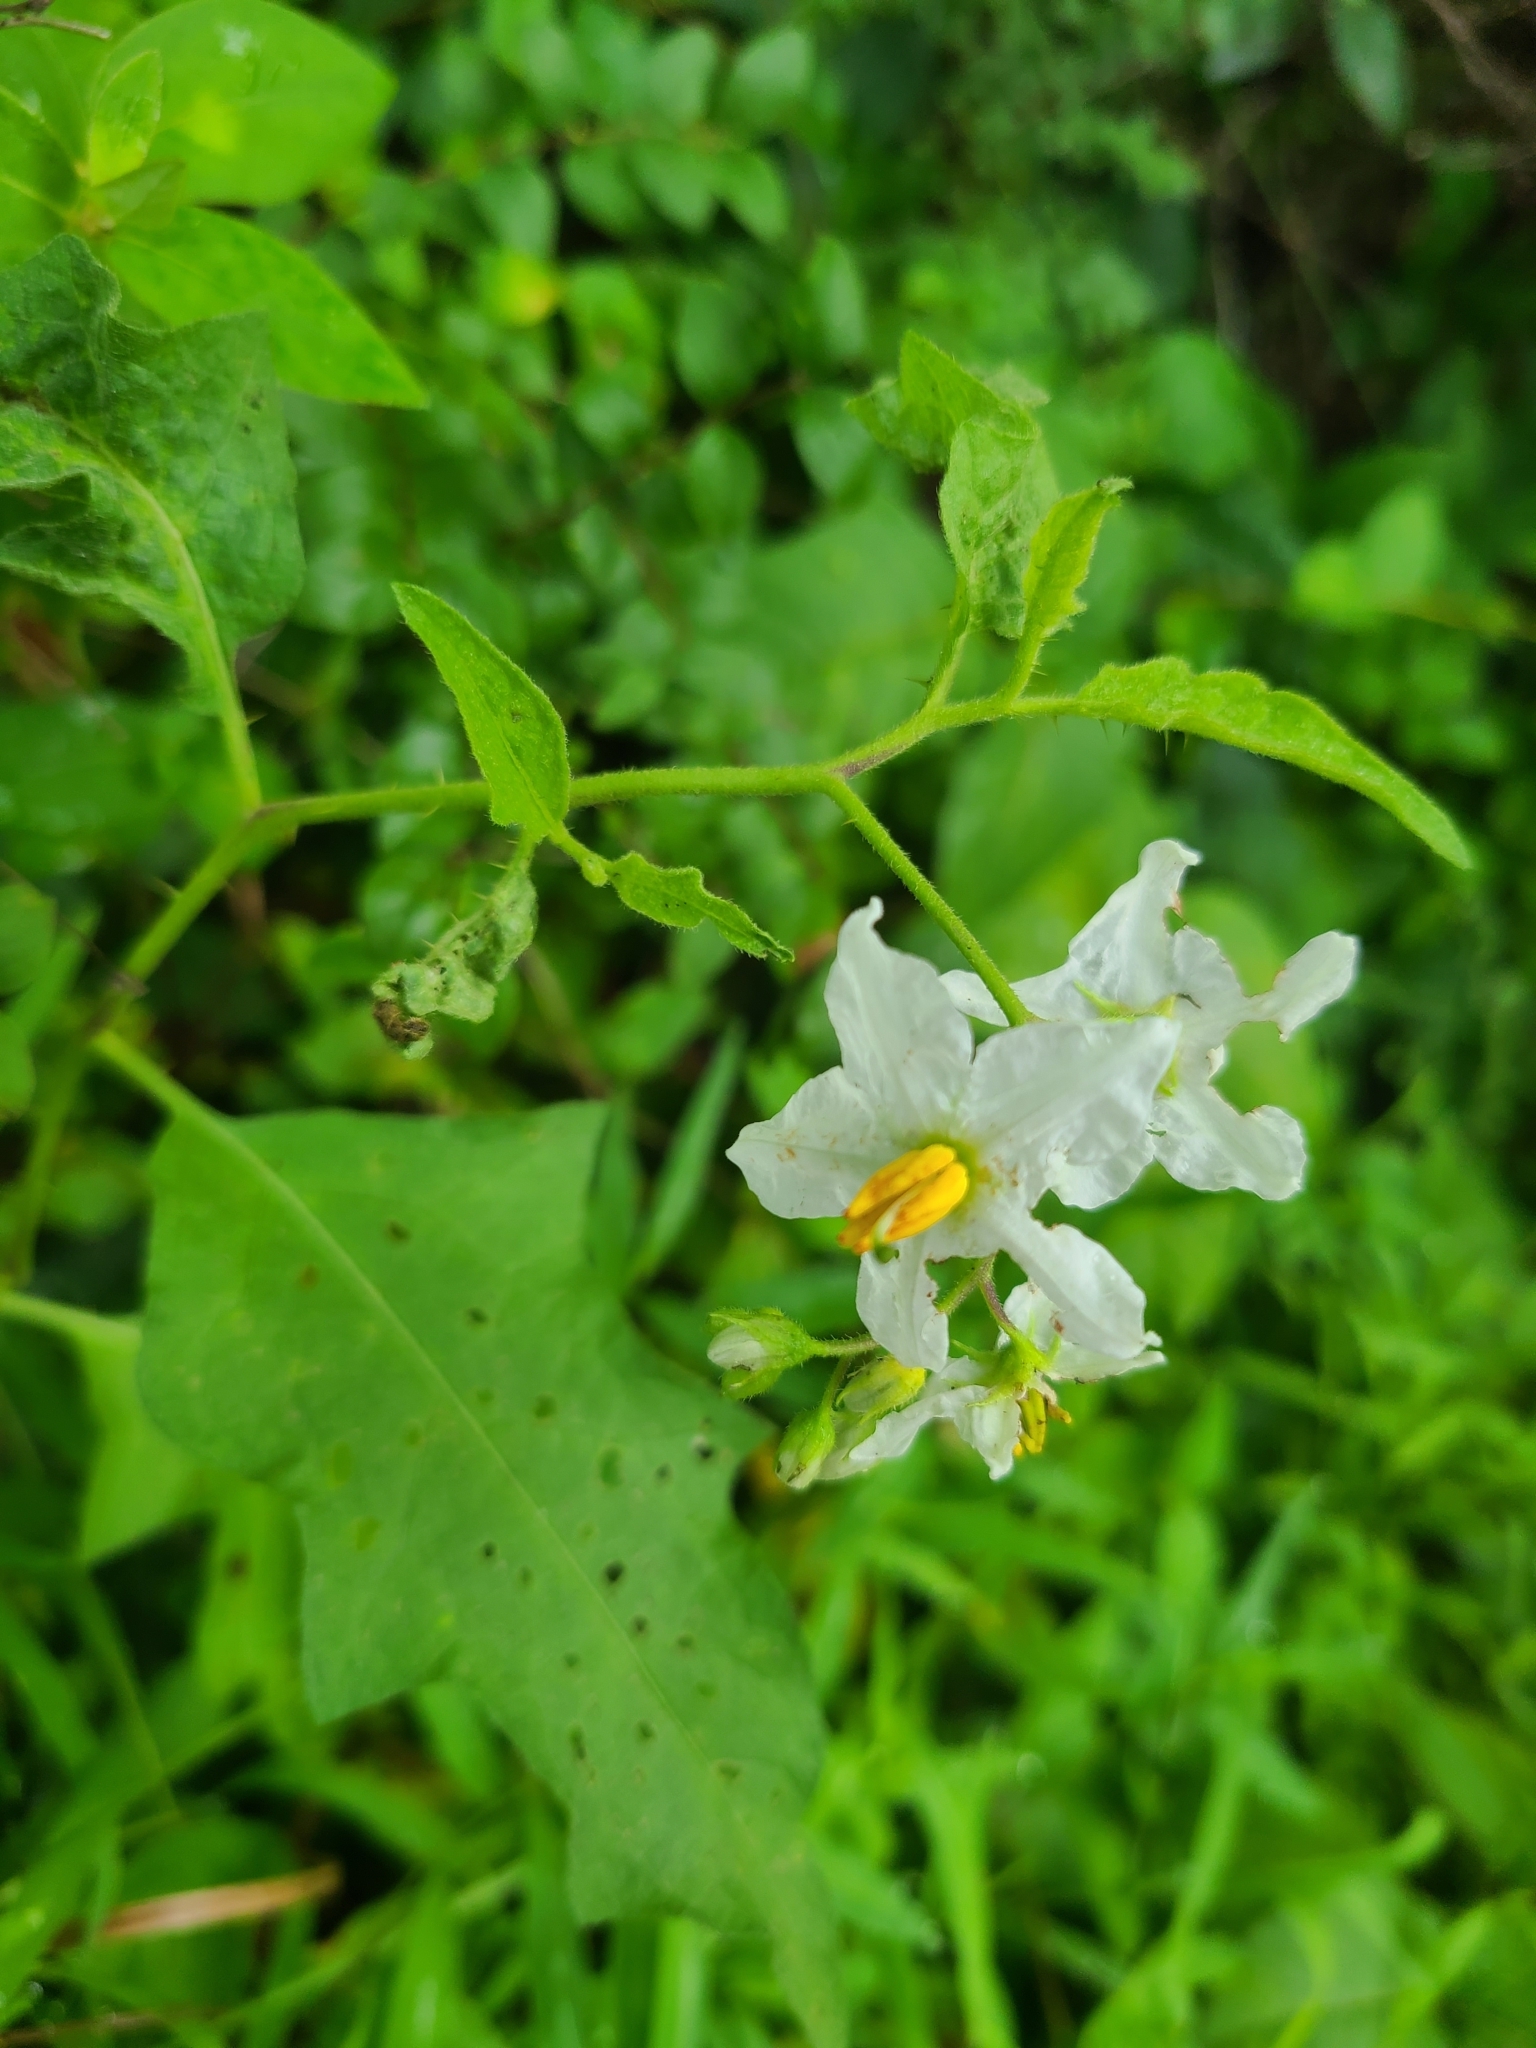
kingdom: Plantae
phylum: Tracheophyta
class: Magnoliopsida
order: Solanales
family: Solanaceae
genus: Solanum
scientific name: Solanum carolinense
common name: Horse-nettle
